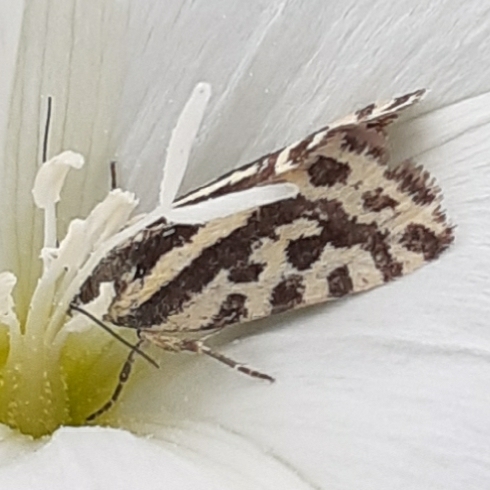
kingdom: Animalia
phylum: Arthropoda
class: Insecta
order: Lepidoptera
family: Noctuidae
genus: Acontia
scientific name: Acontia trabealis
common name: Spotted sulphur
